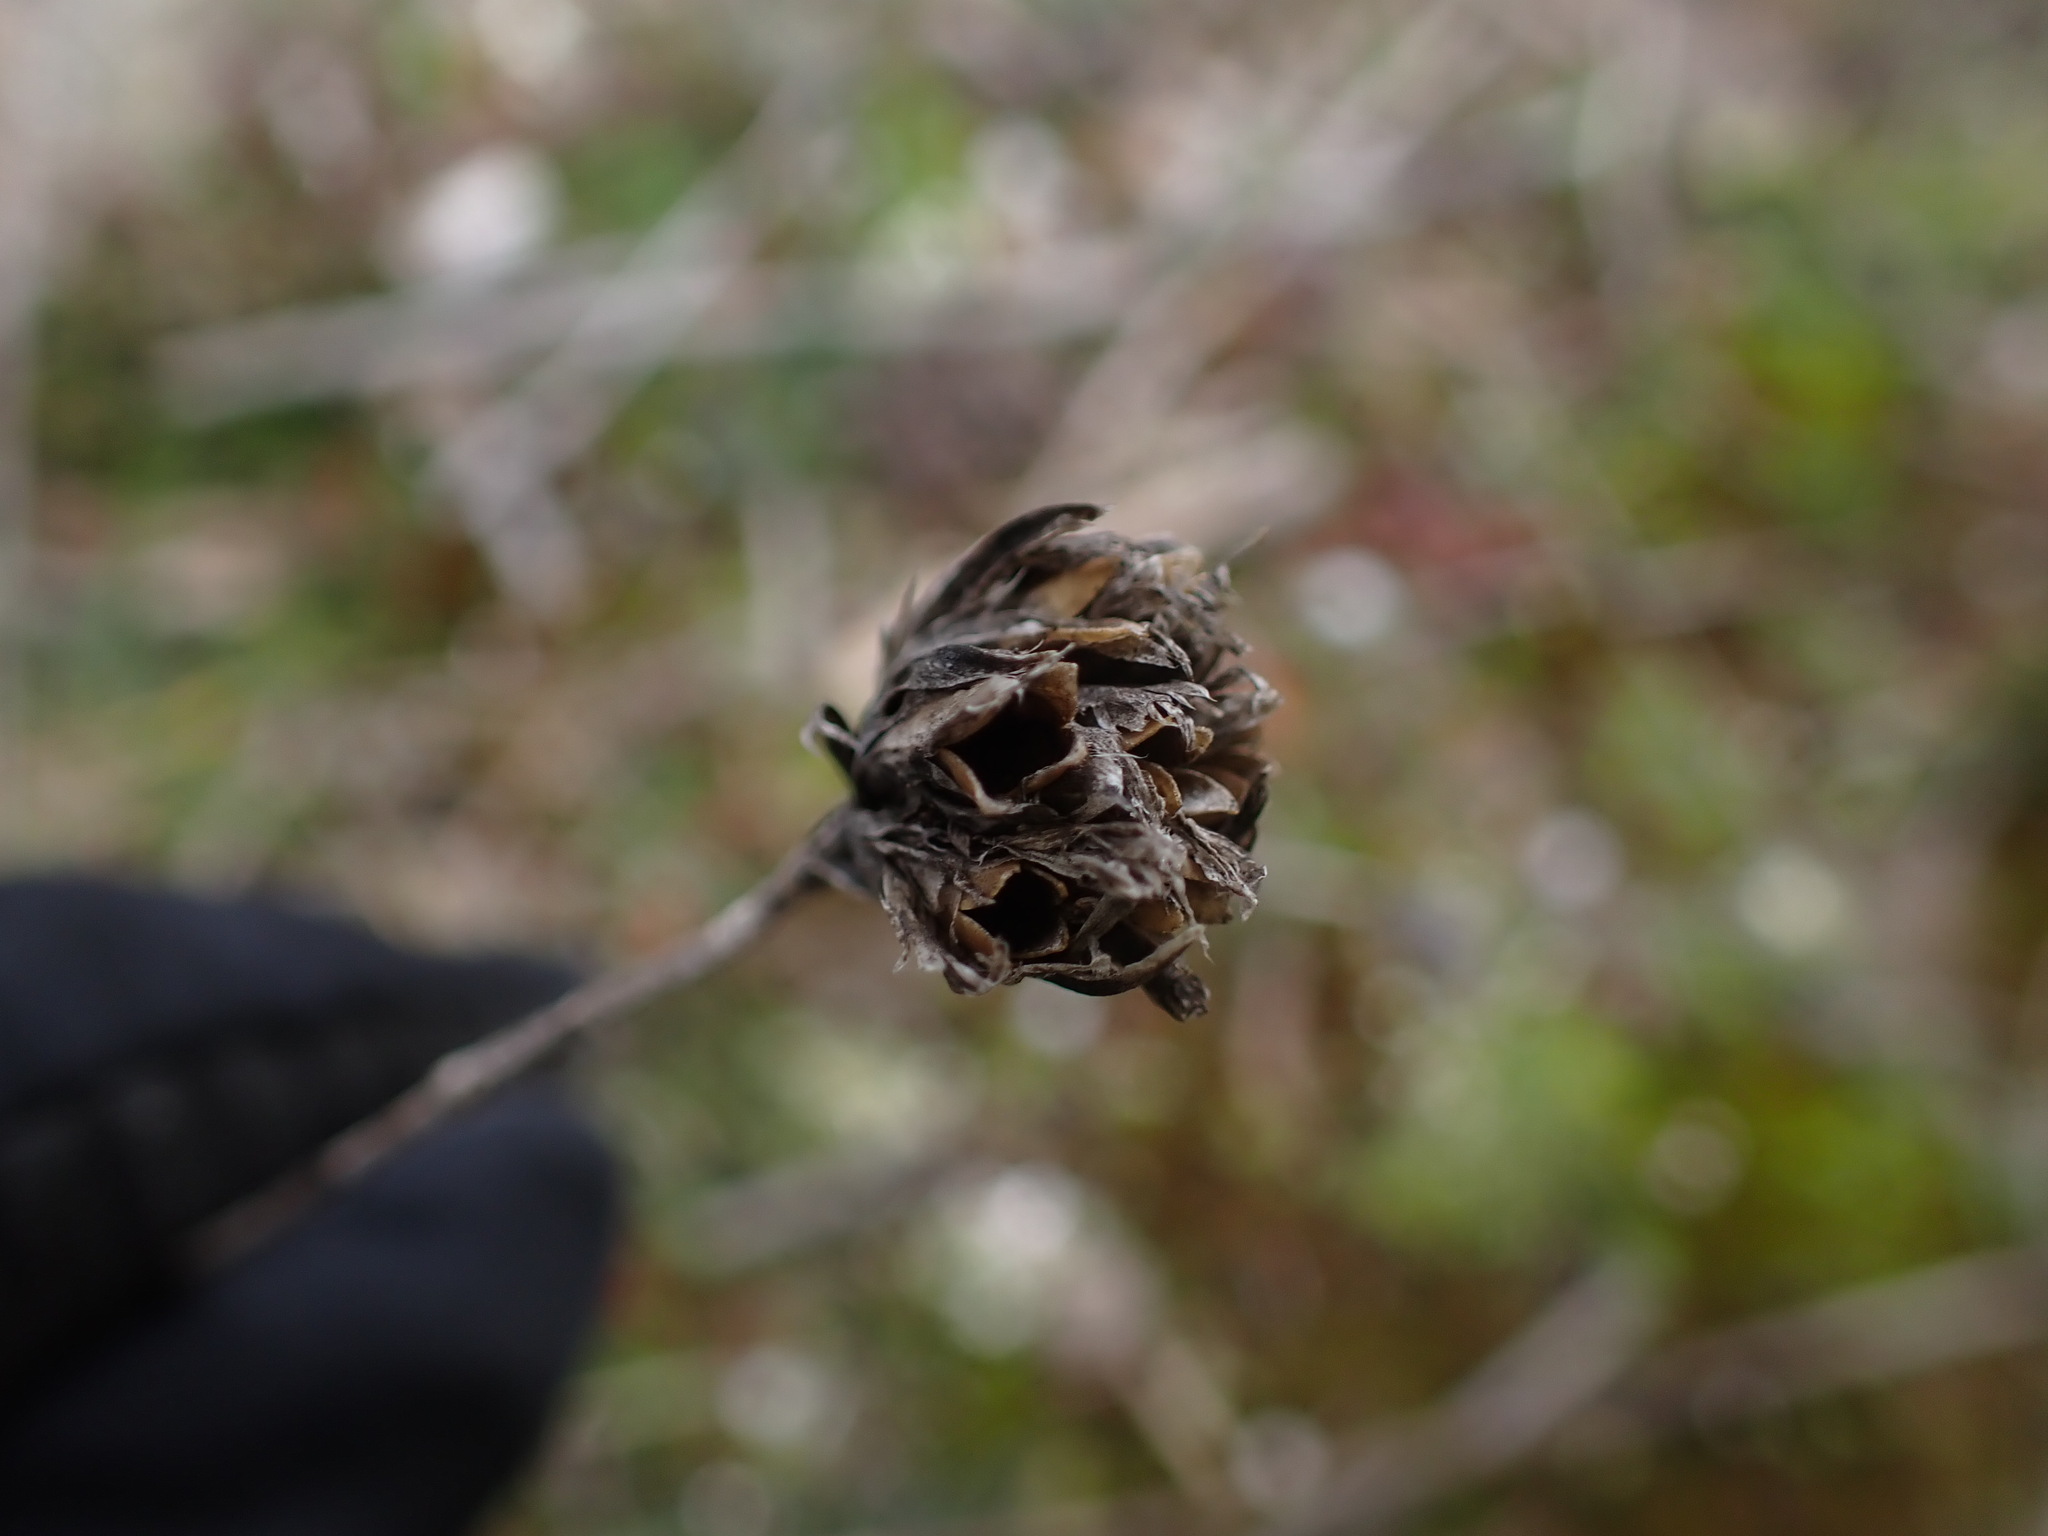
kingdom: Plantae
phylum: Tracheophyta
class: Magnoliopsida
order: Caryophyllales
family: Caryophyllaceae
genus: Petrorhagia
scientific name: Petrorhagia prolifera
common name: Proliferous pink
